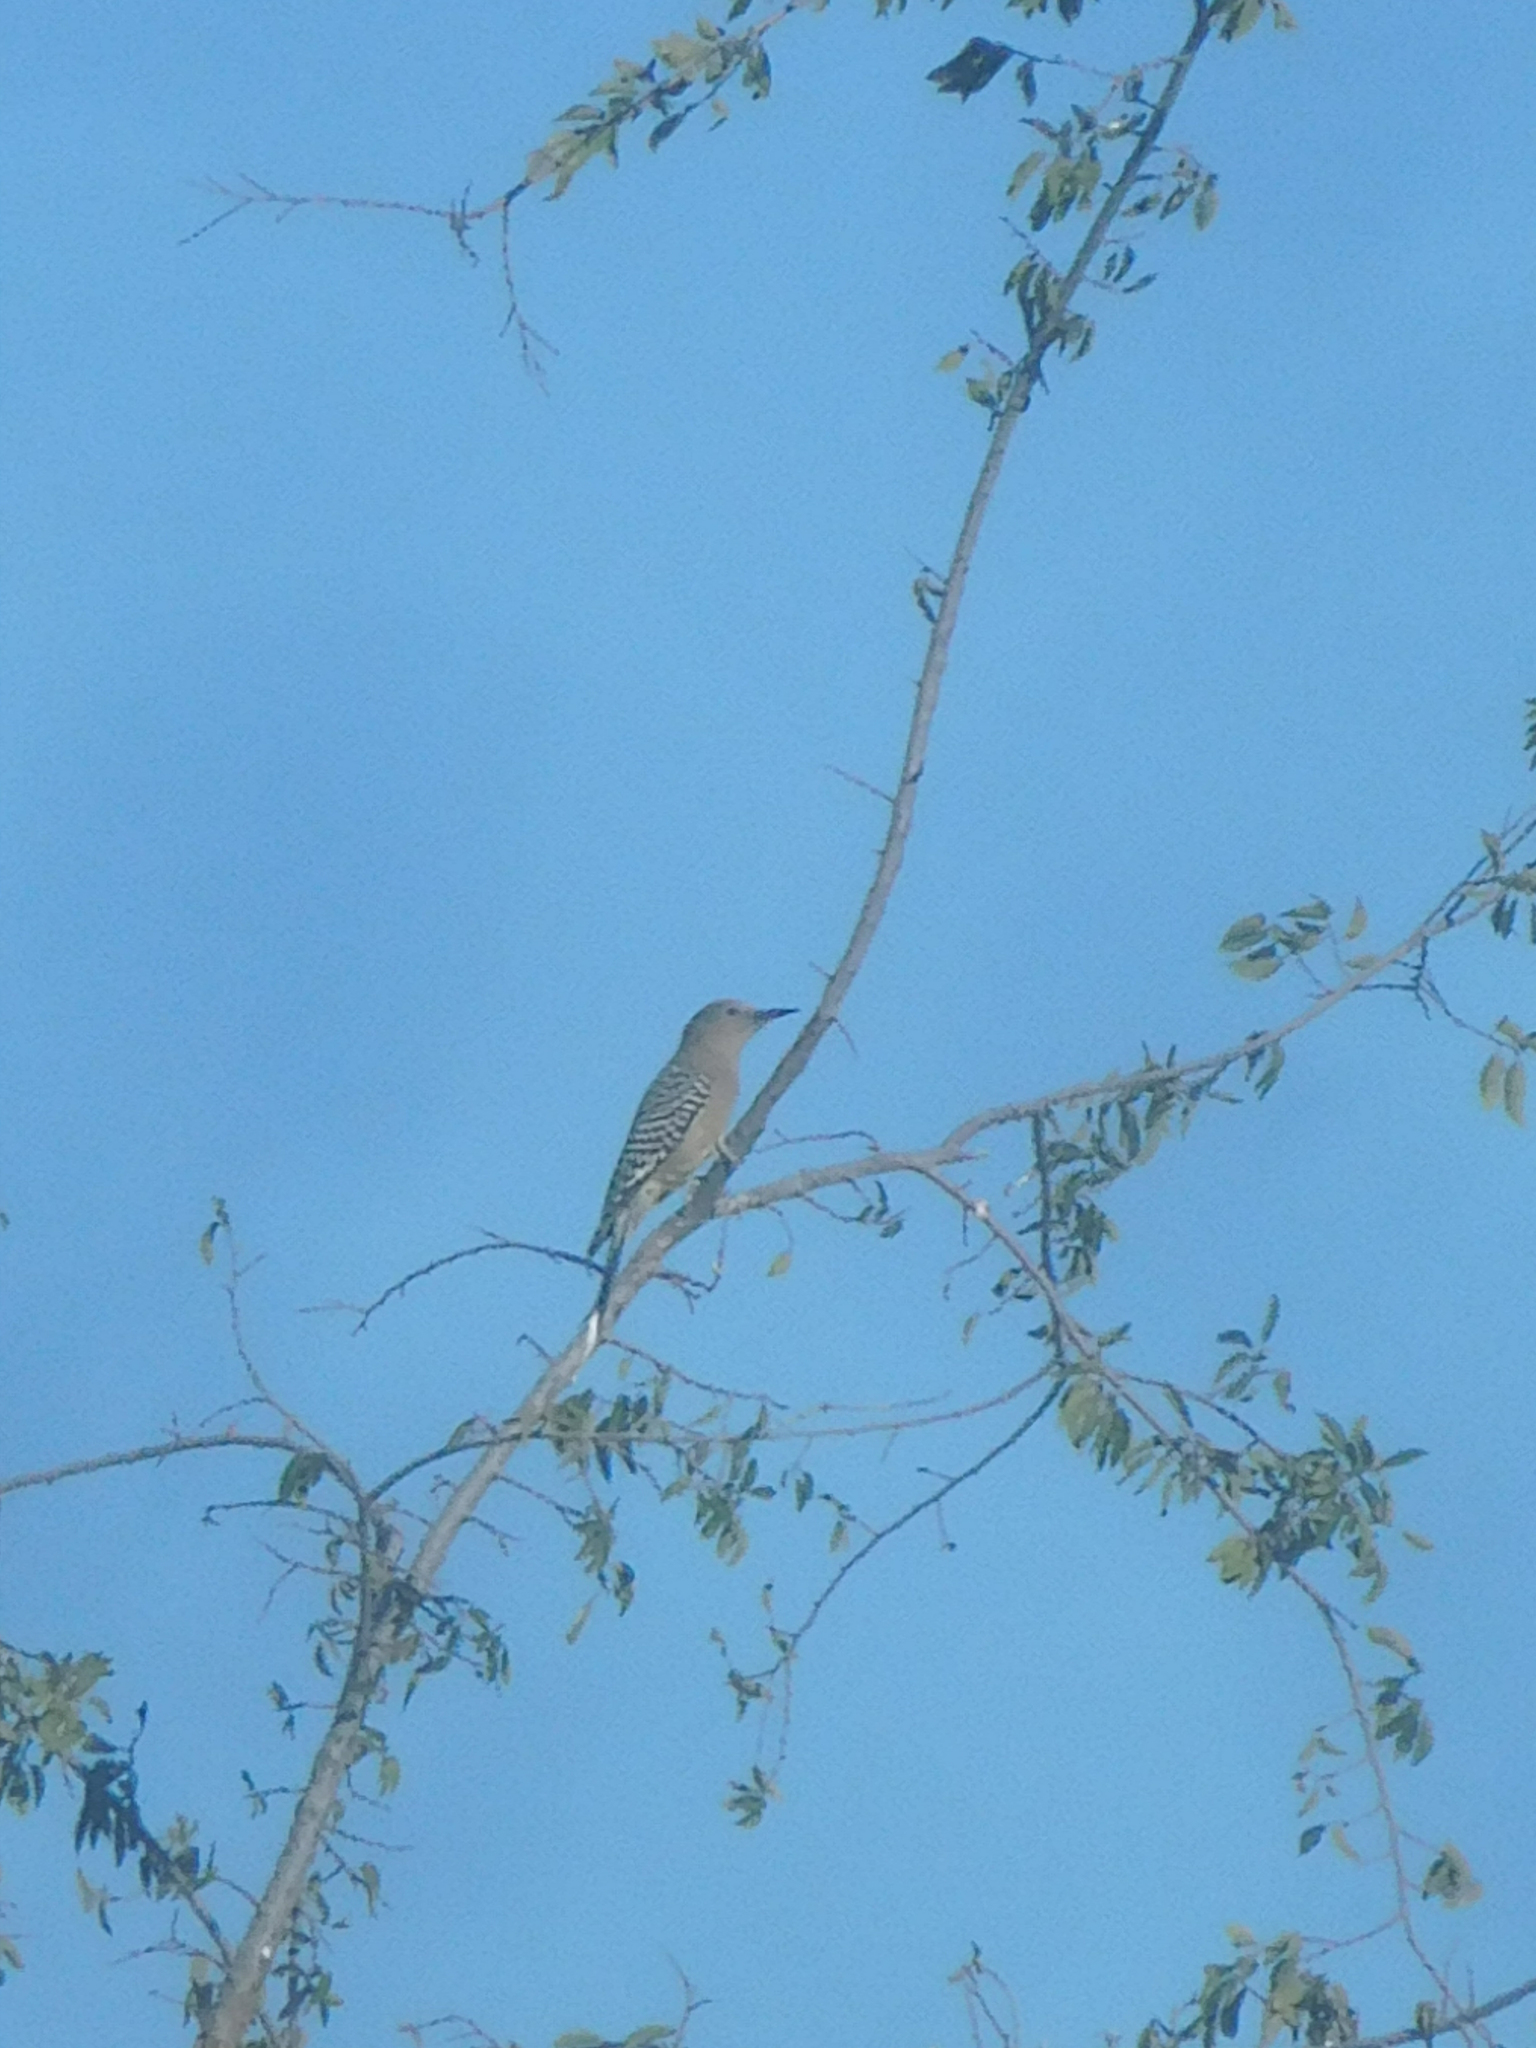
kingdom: Animalia
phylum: Chordata
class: Aves
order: Piciformes
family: Picidae
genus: Melanerpes
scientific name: Melanerpes uropygialis
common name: Gila woodpecker
